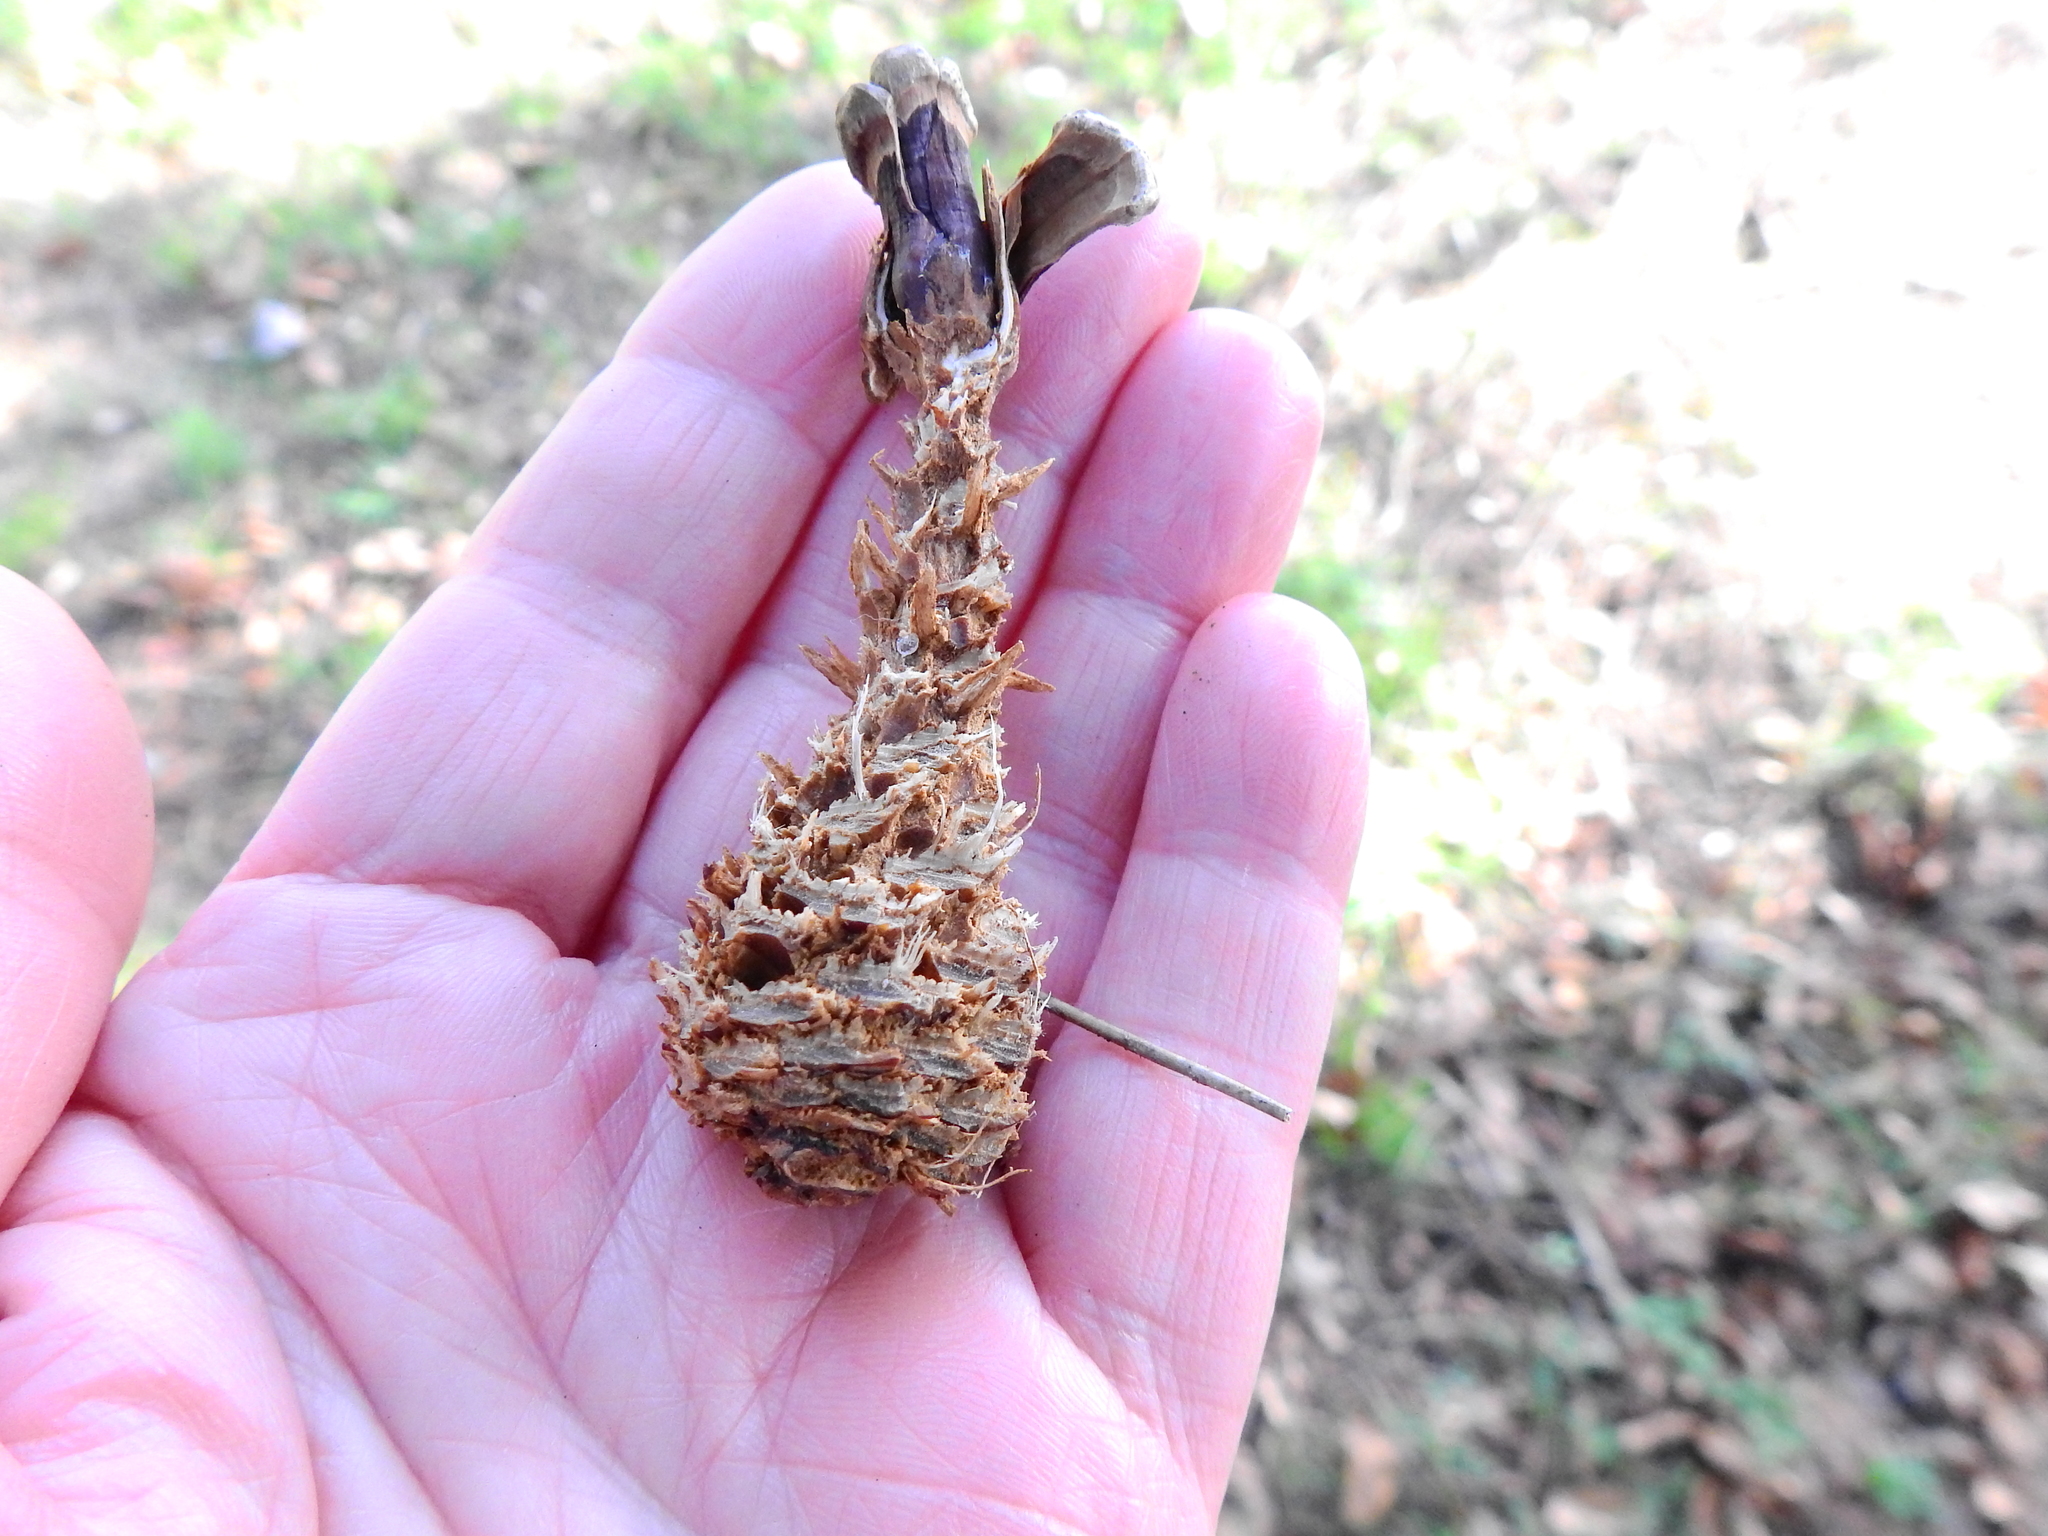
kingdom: Animalia
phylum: Chordata
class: Mammalia
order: Rodentia
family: Sciuridae
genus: Sciurus
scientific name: Sciurus carolinensis
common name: Eastern gray squirrel
